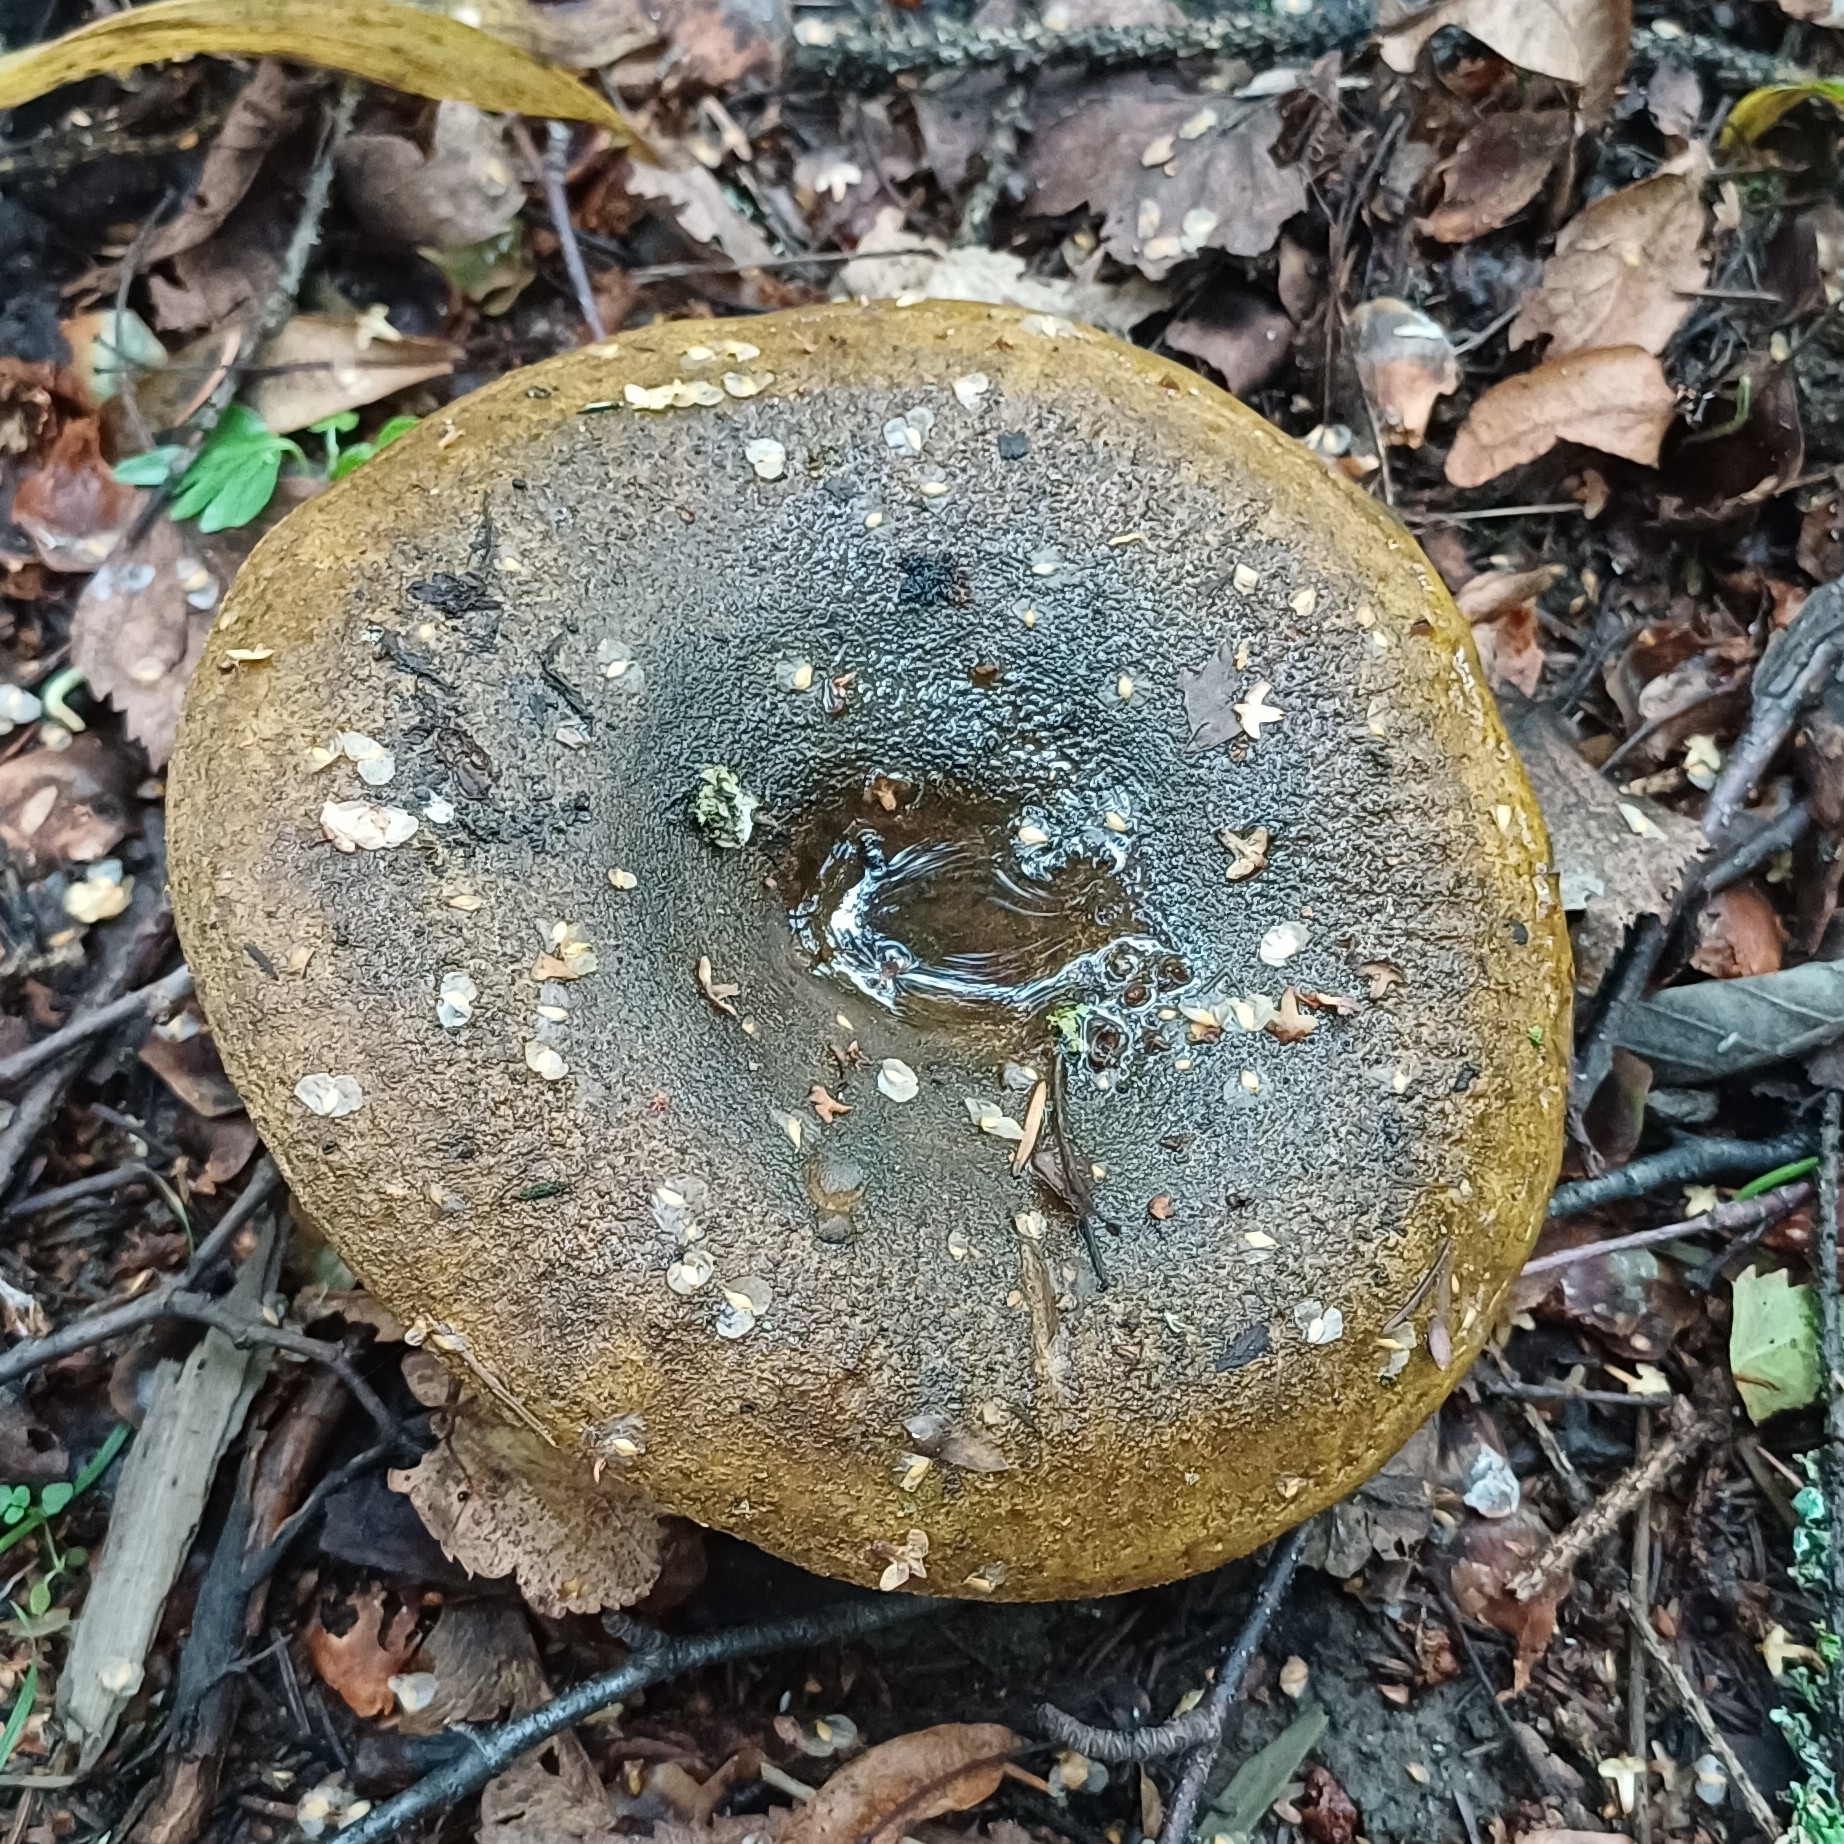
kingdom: Fungi
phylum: Basidiomycota
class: Agaricomycetes
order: Russulales
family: Russulaceae
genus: Lactarius
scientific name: Lactarius turpis
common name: Ugly milk-cap
